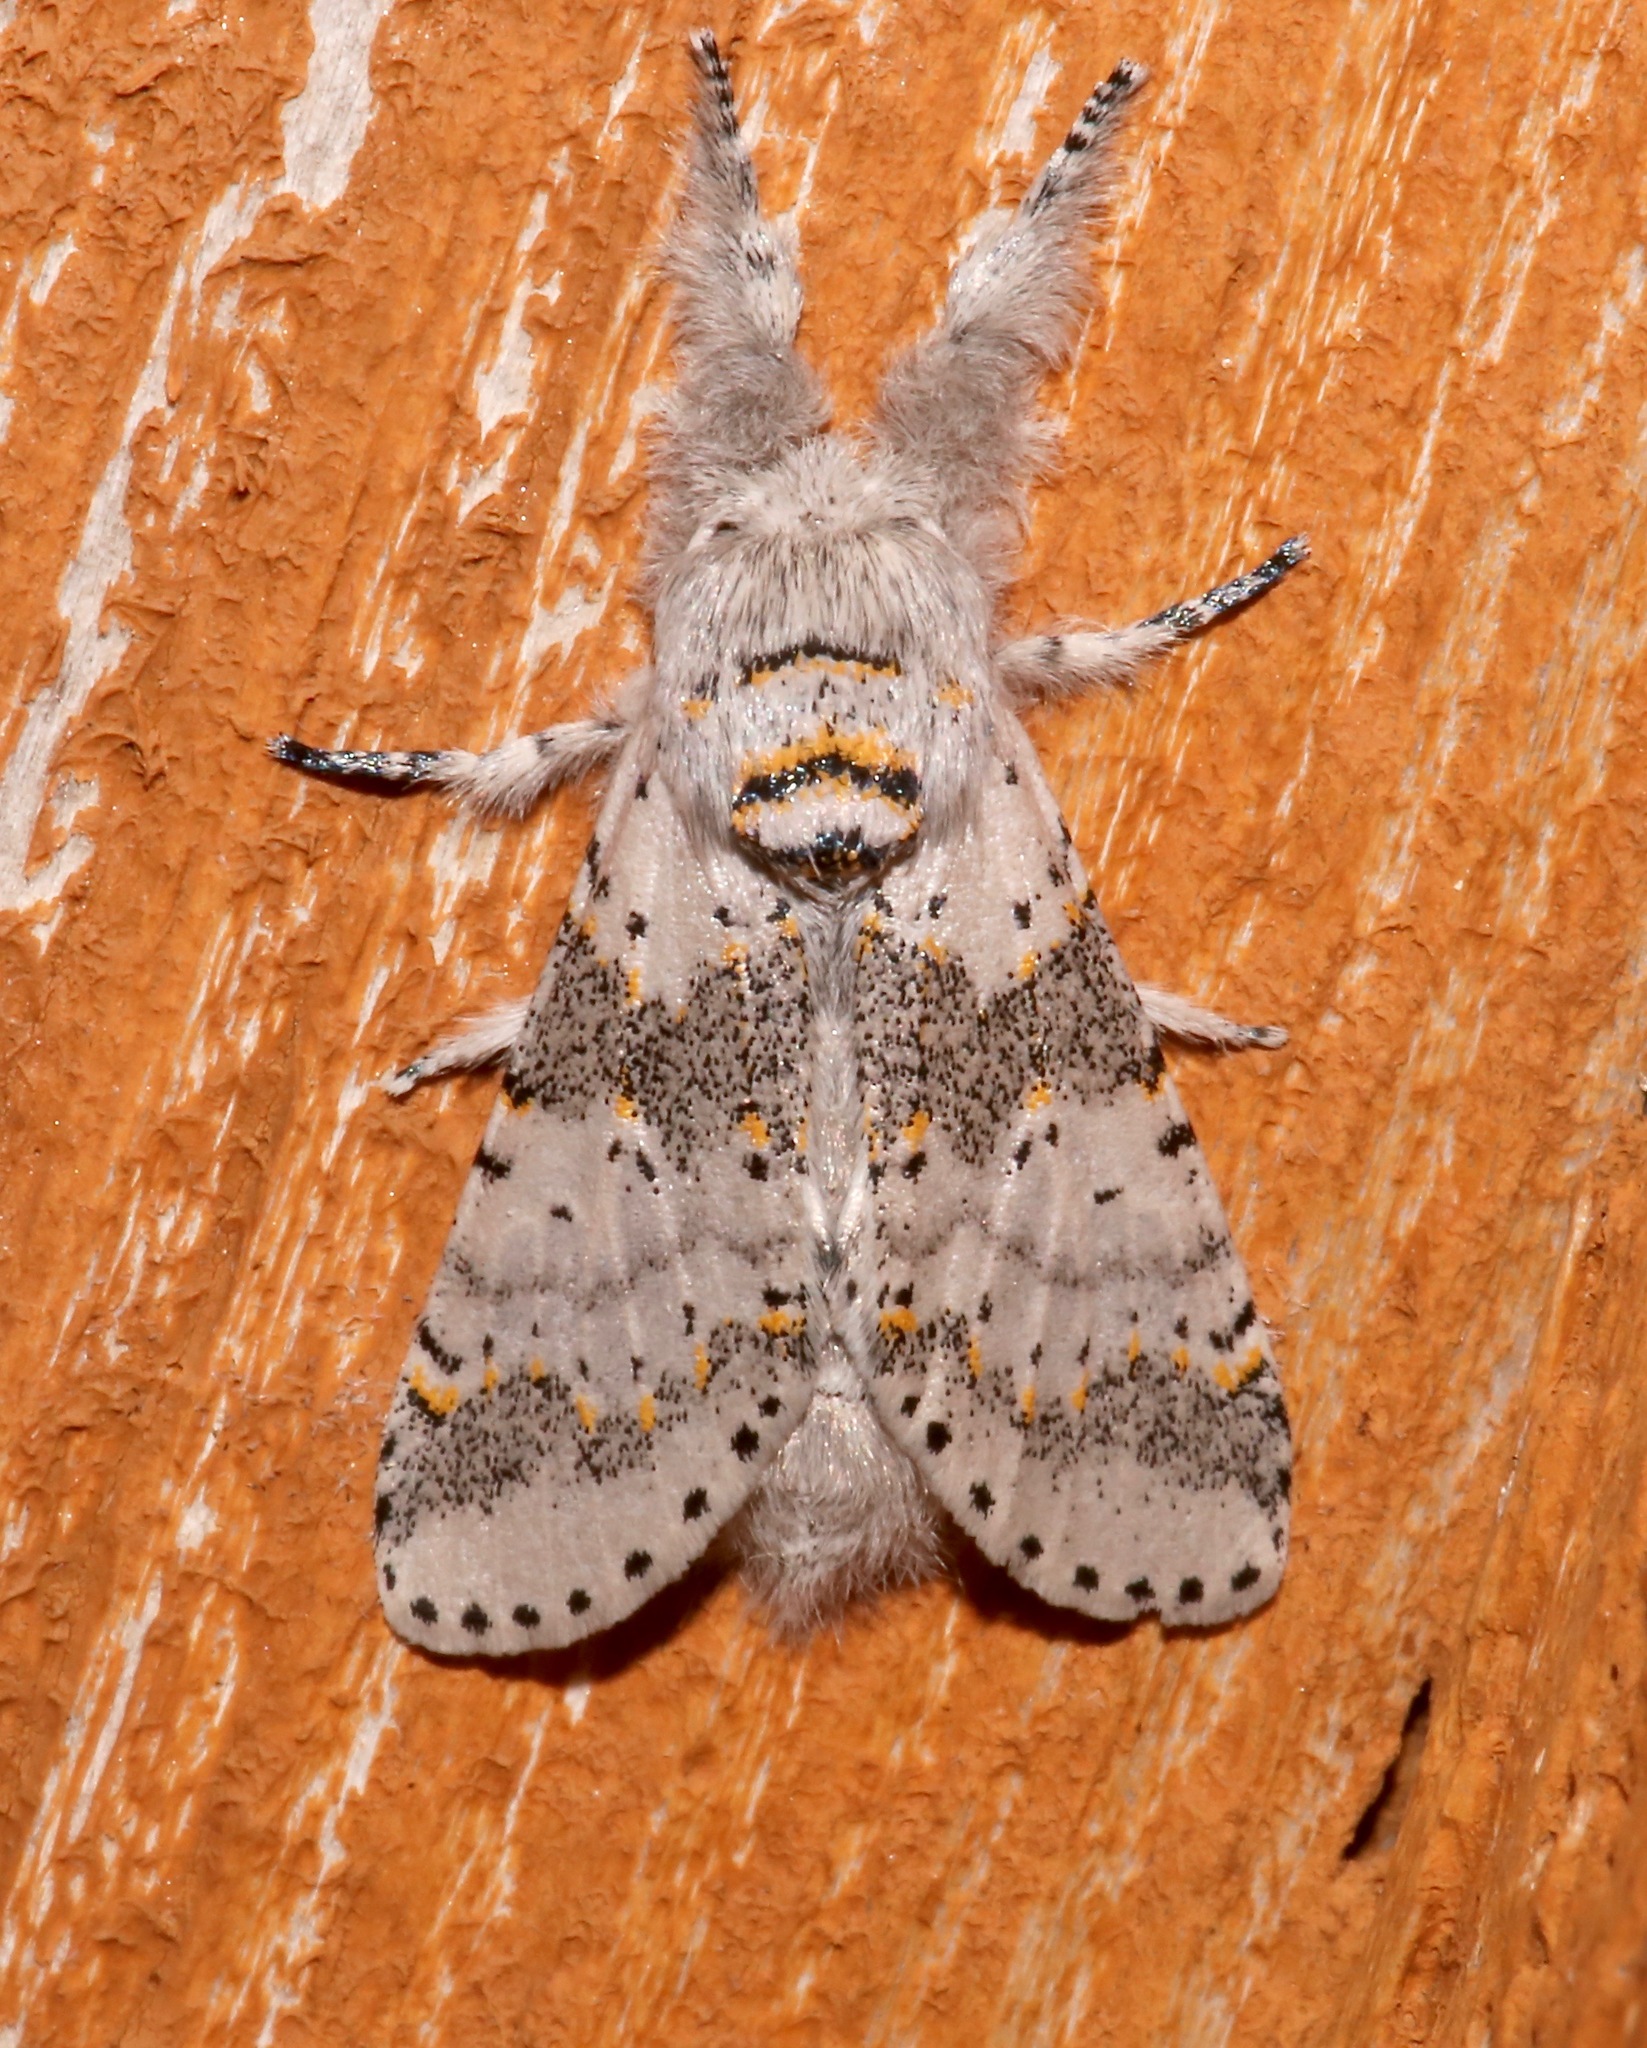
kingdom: Animalia
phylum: Arthropoda
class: Insecta
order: Lepidoptera
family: Notodontidae
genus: Furcula
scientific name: Furcula cinerea
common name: Gray furcula
